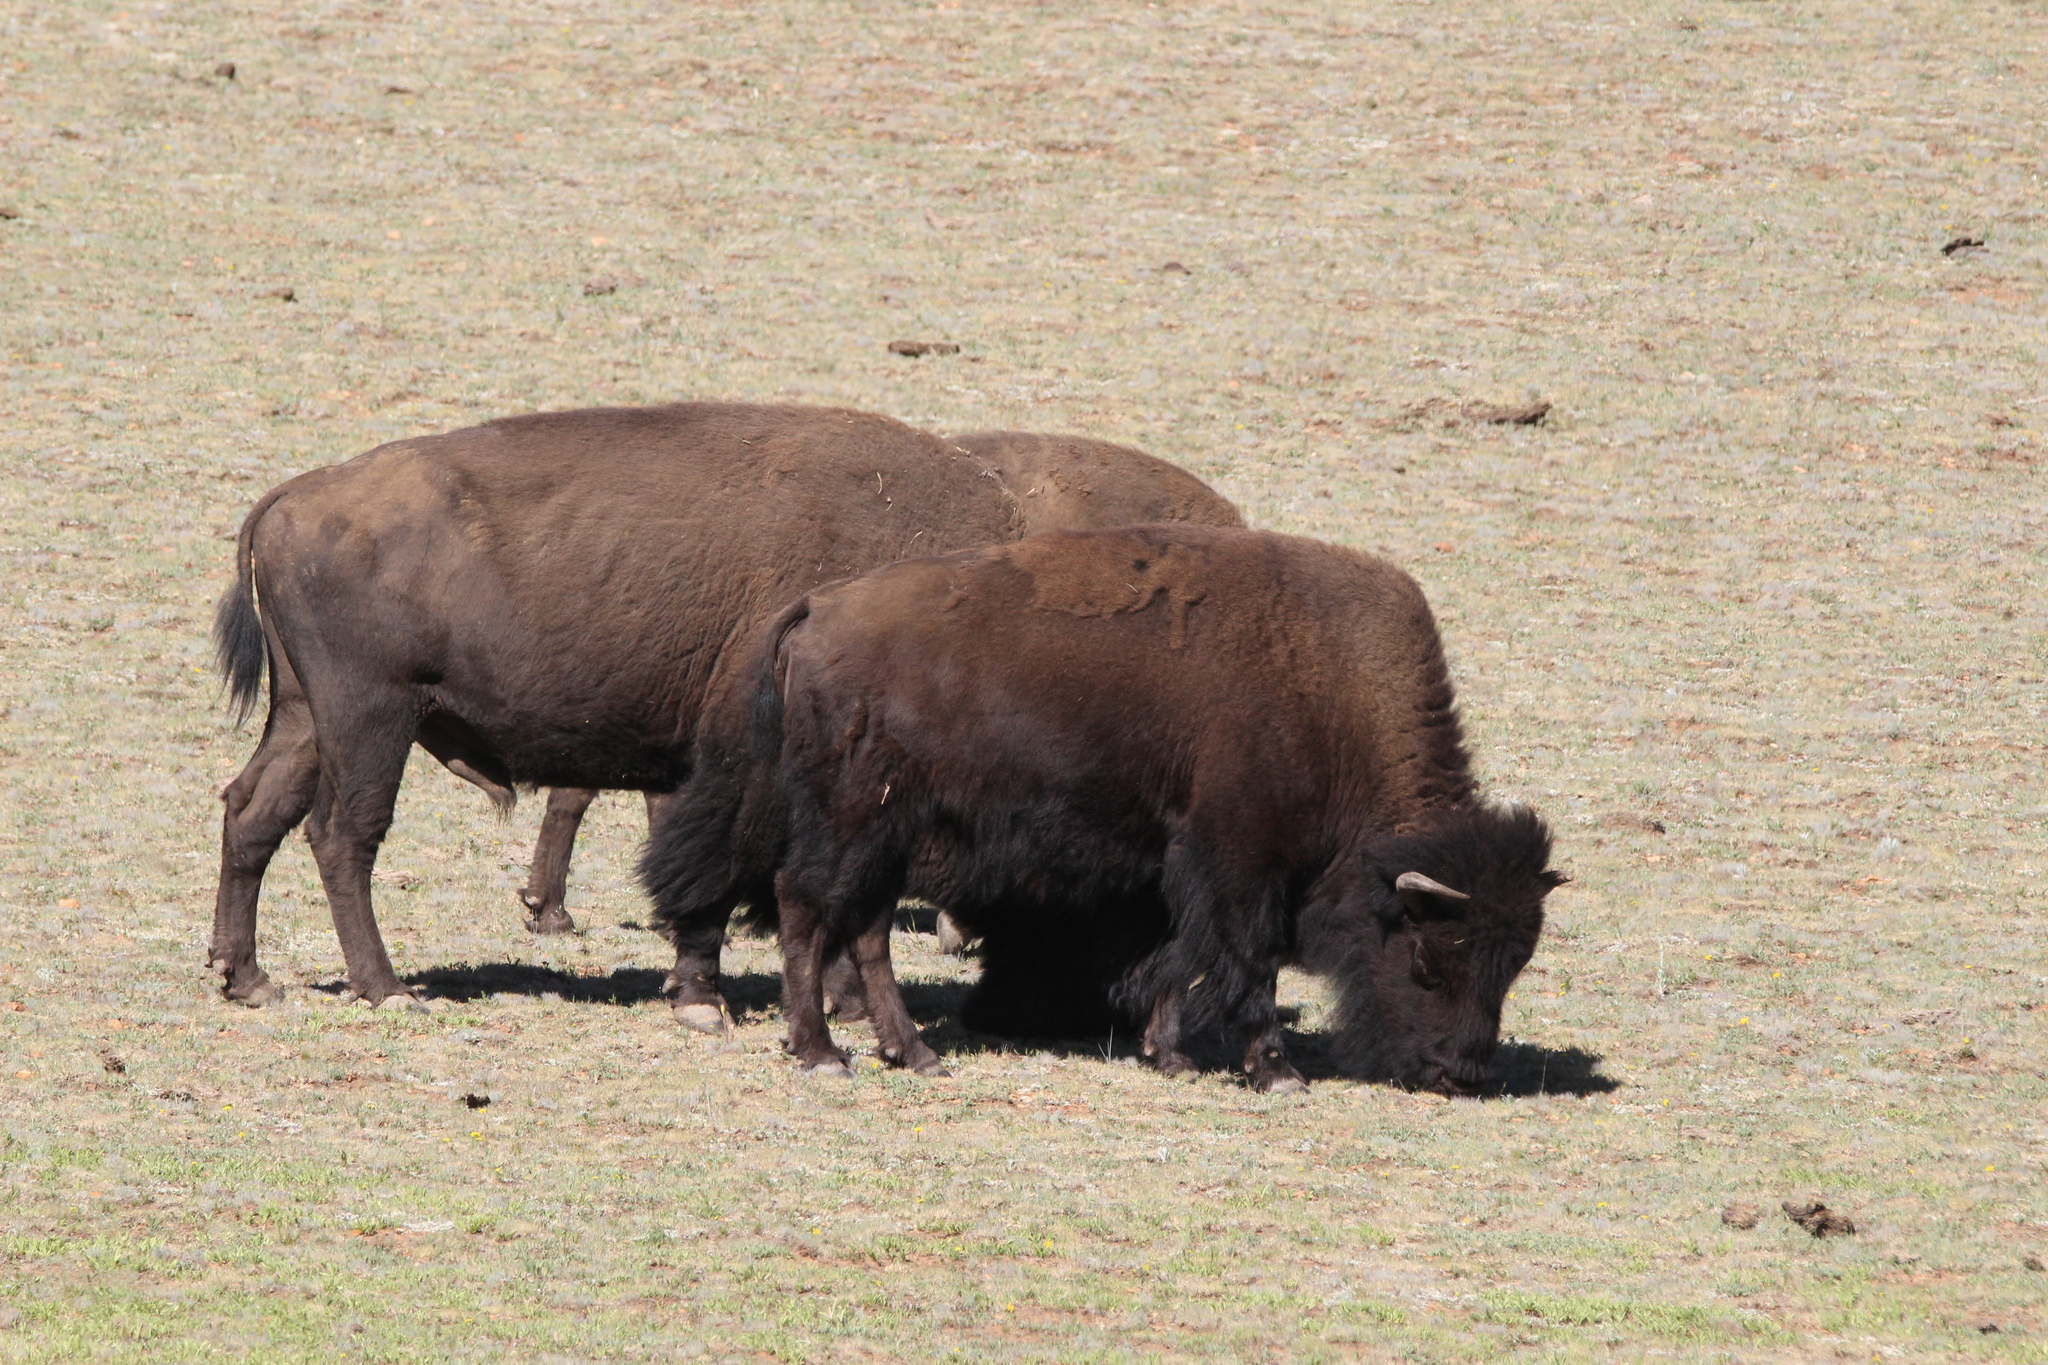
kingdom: Animalia
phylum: Chordata
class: Mammalia
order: Artiodactyla
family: Bovidae
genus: Bison
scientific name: Bison bison
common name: American bison
